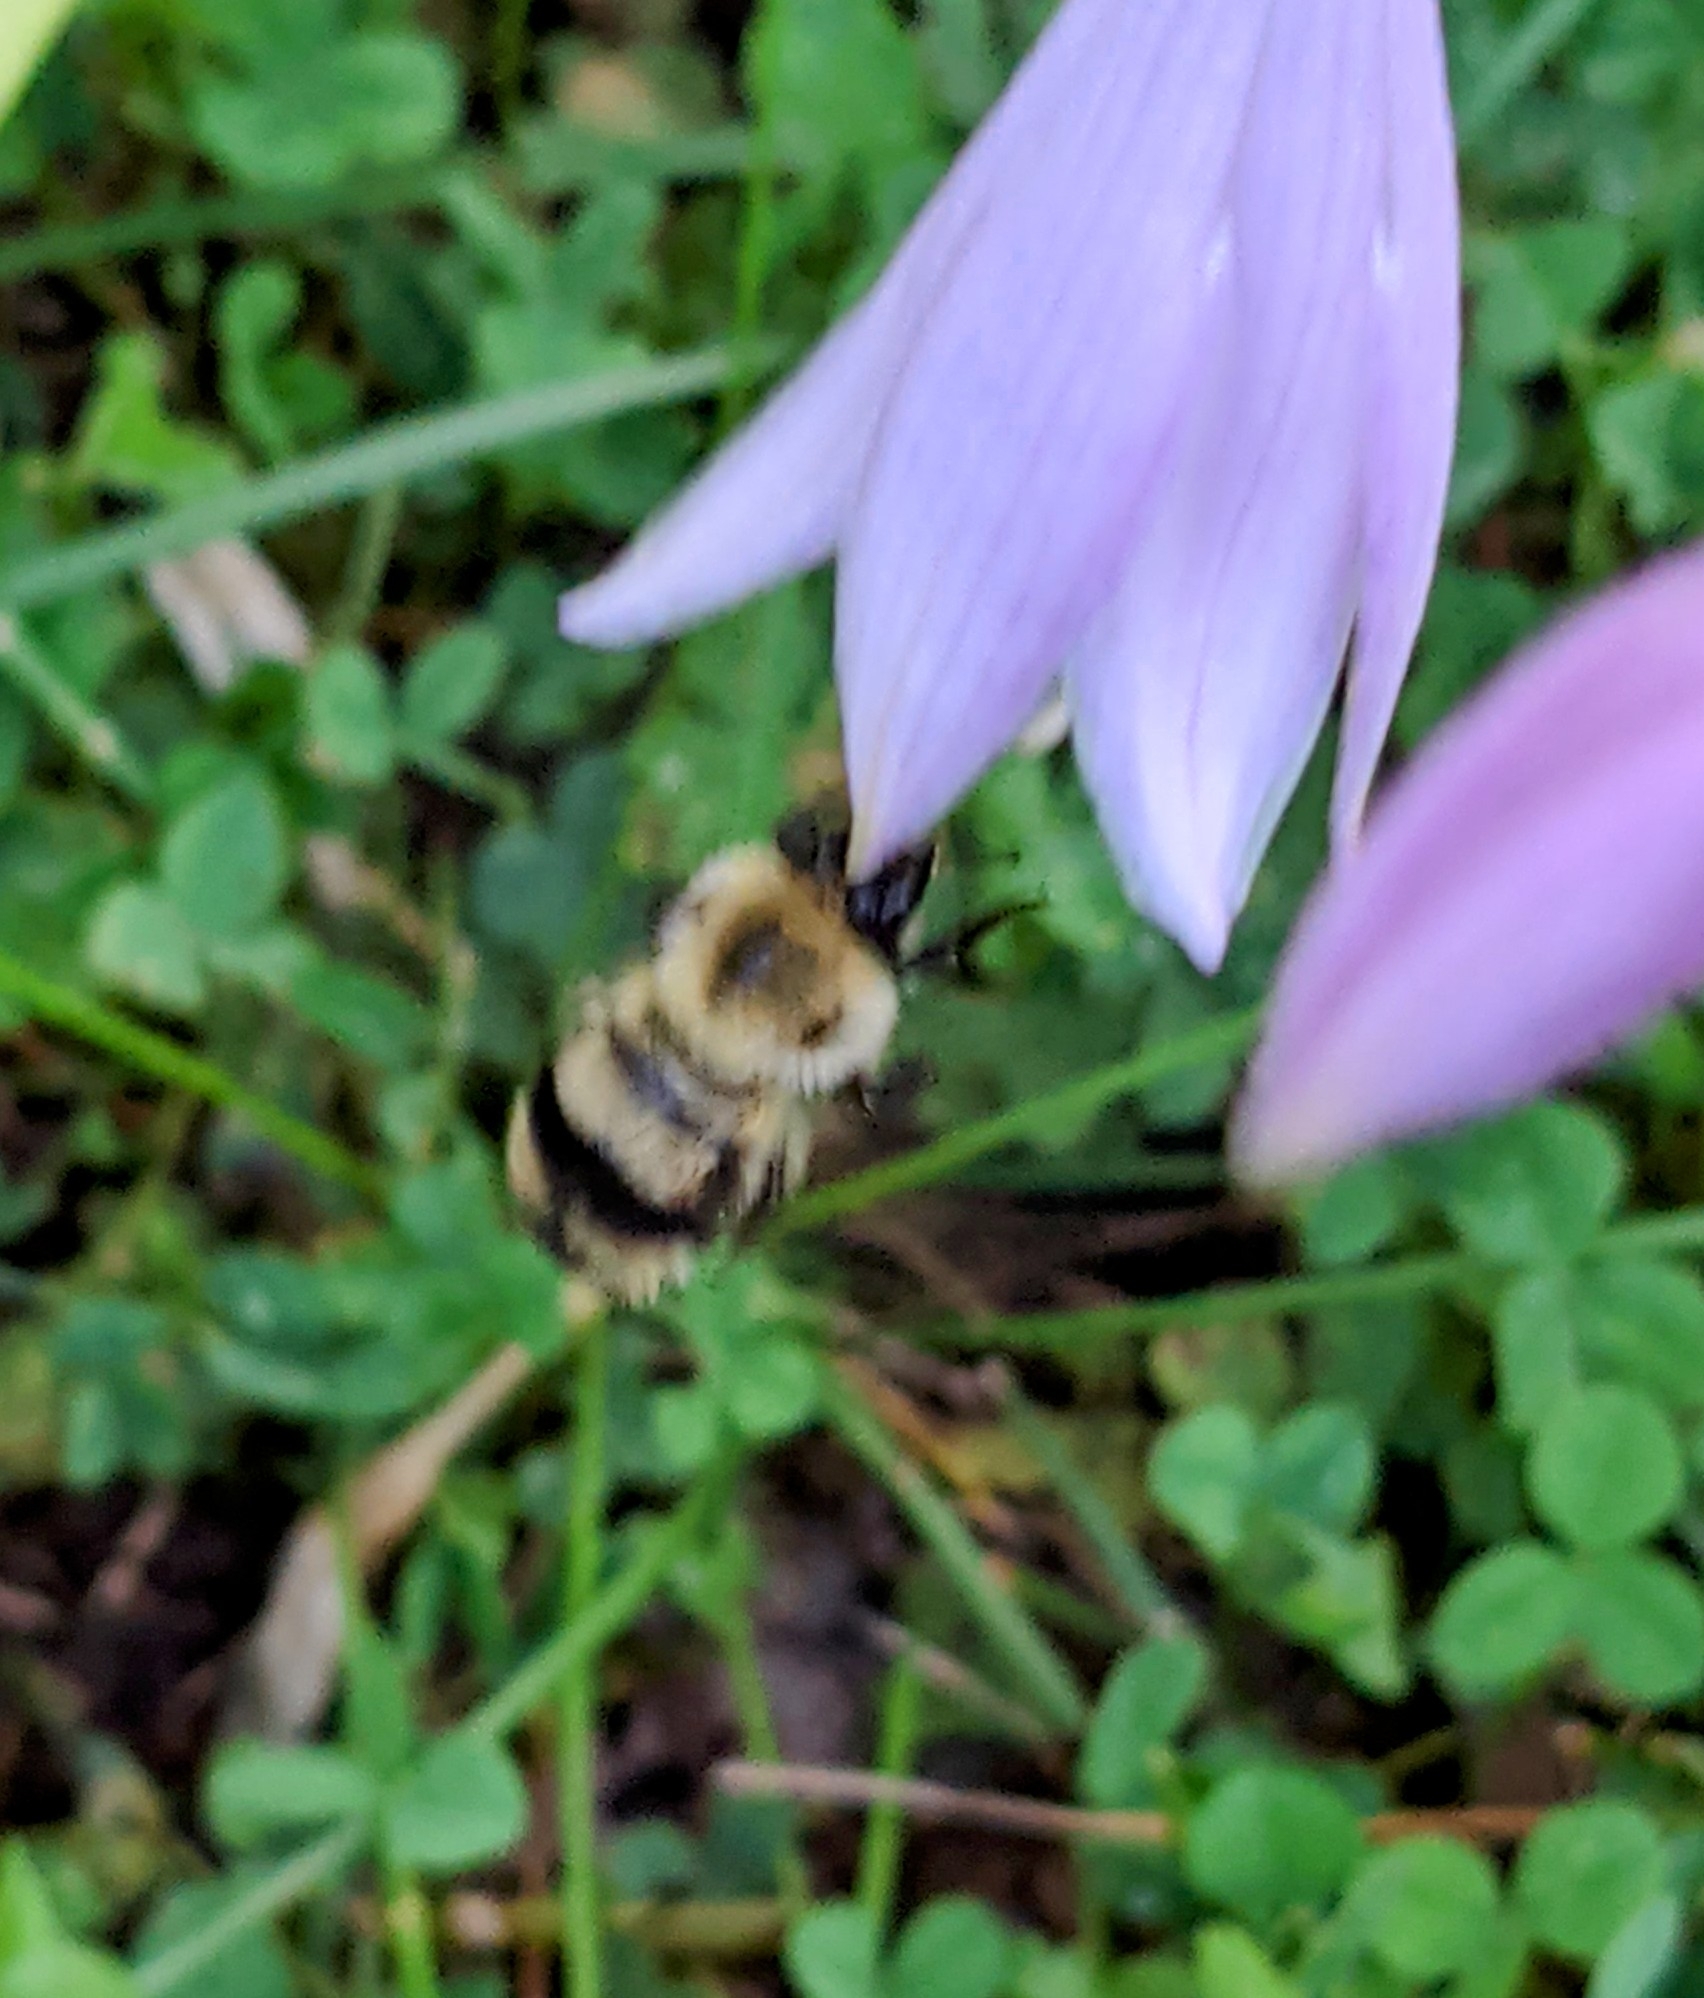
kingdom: Animalia
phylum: Arthropoda
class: Insecta
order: Hymenoptera
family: Apidae
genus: Bombus
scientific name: Bombus bimaculatus
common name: Two-spotted bumble bee
